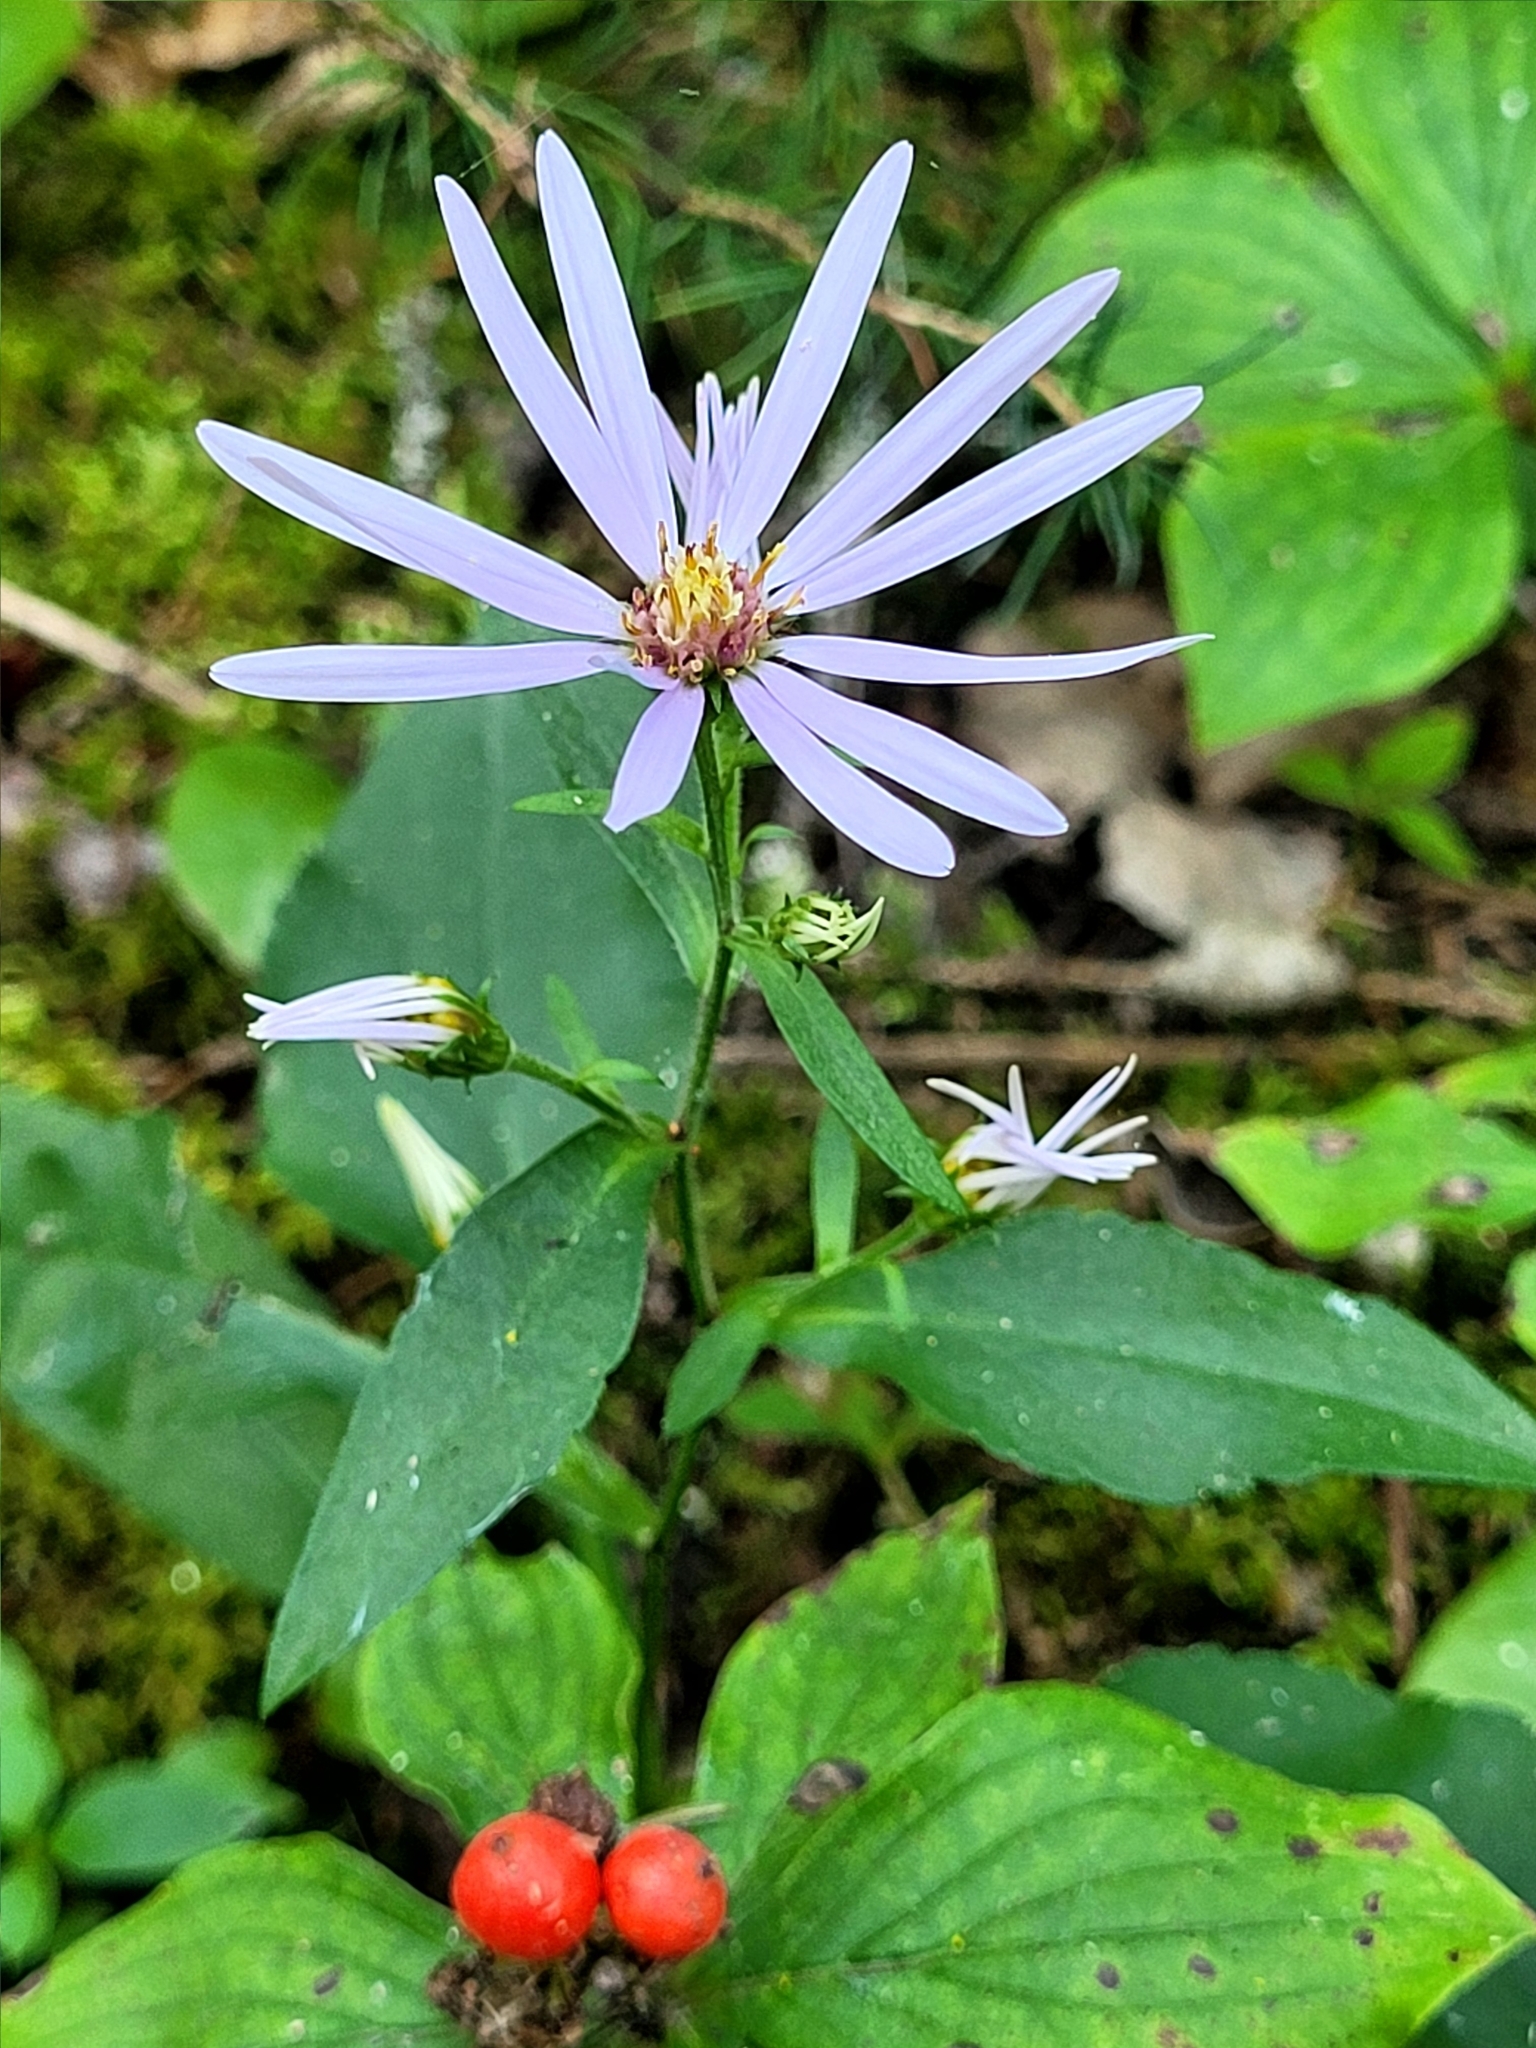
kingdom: Plantae
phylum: Tracheophyta
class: Magnoliopsida
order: Asterales
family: Asteraceae
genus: Symphyotrichum
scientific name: Symphyotrichum ciliolatum
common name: Fringed blue aster
